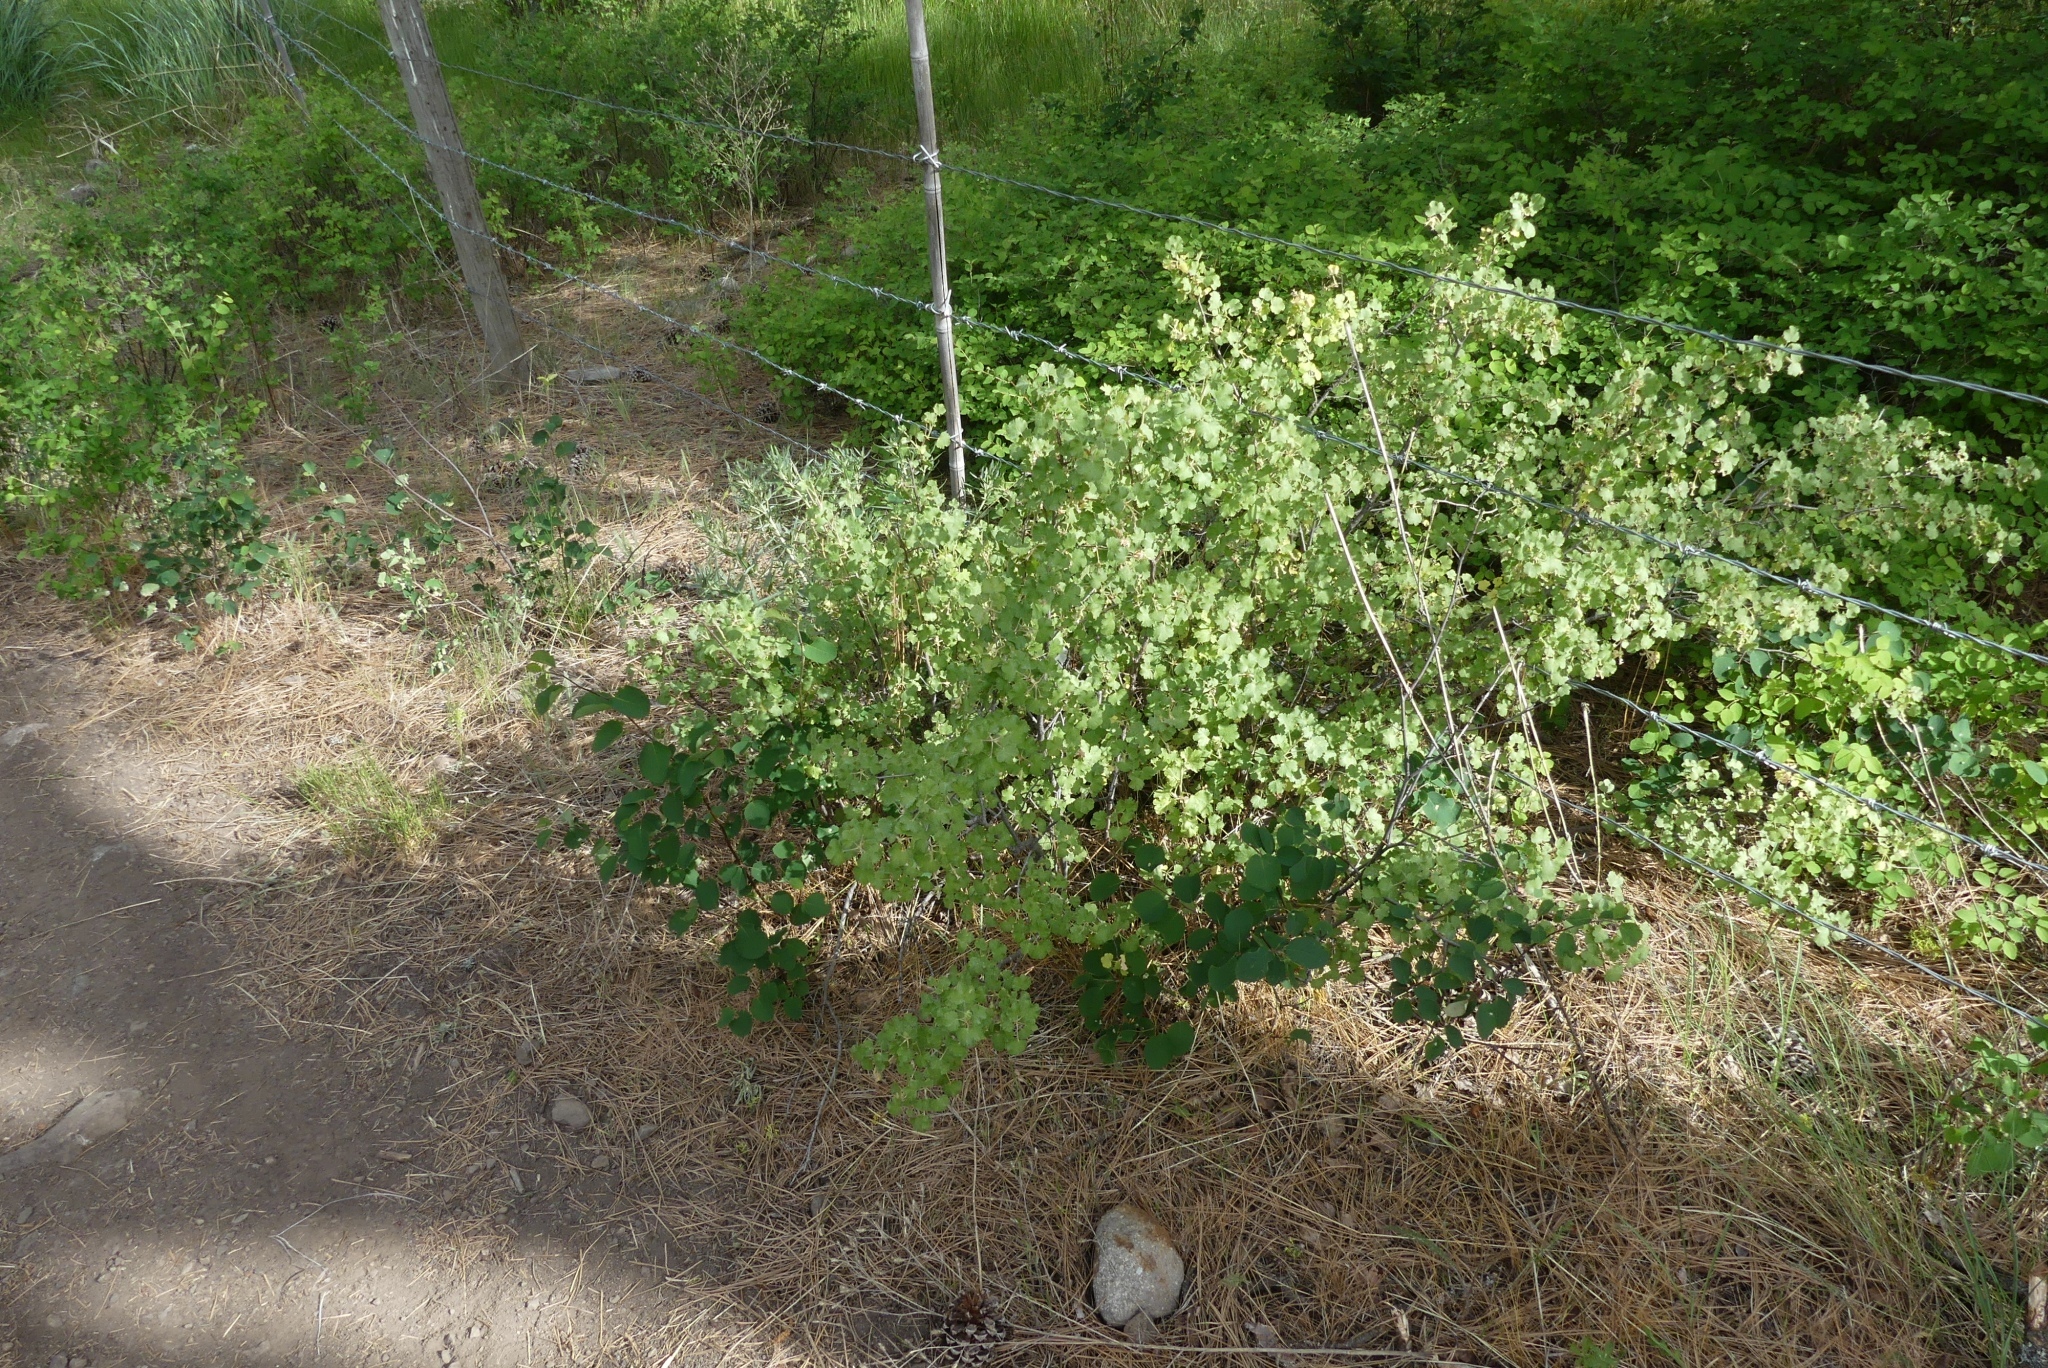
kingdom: Plantae
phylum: Tracheophyta
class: Magnoliopsida
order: Saxifragales
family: Grossulariaceae
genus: Ribes
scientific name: Ribes cereum
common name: Wax currant
